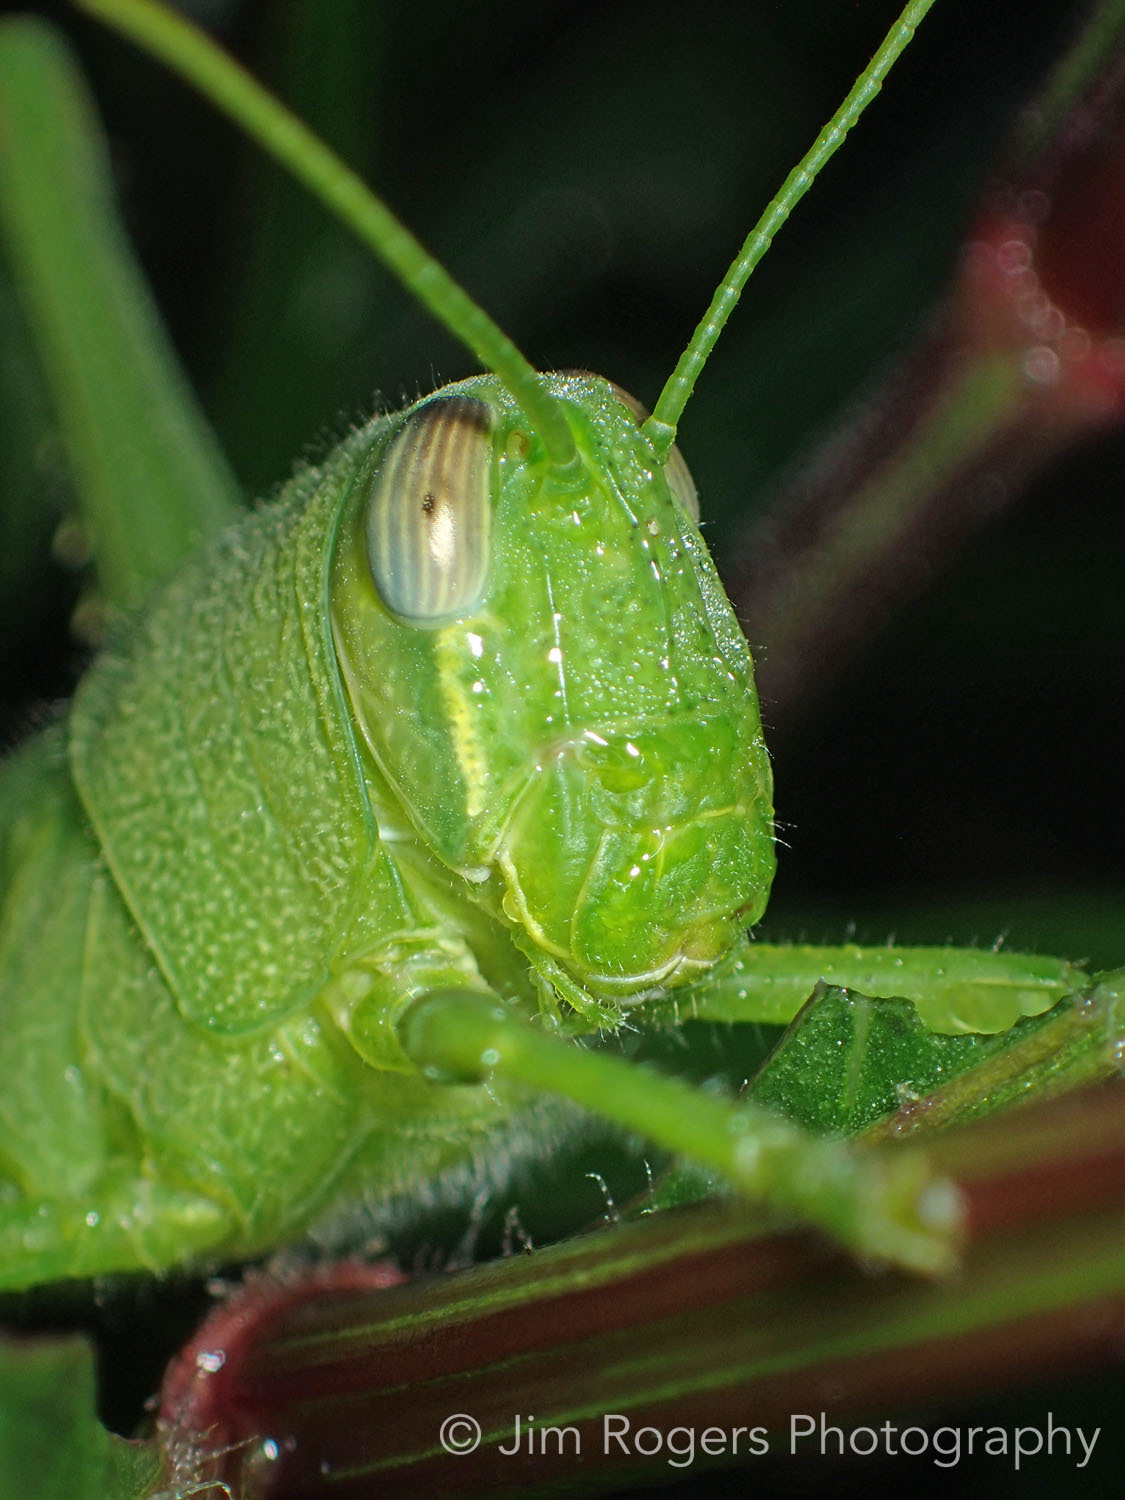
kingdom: Animalia
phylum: Arthropoda
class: Insecta
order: Orthoptera
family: Acrididae
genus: Schistocerca
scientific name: Schistocerca serialis
